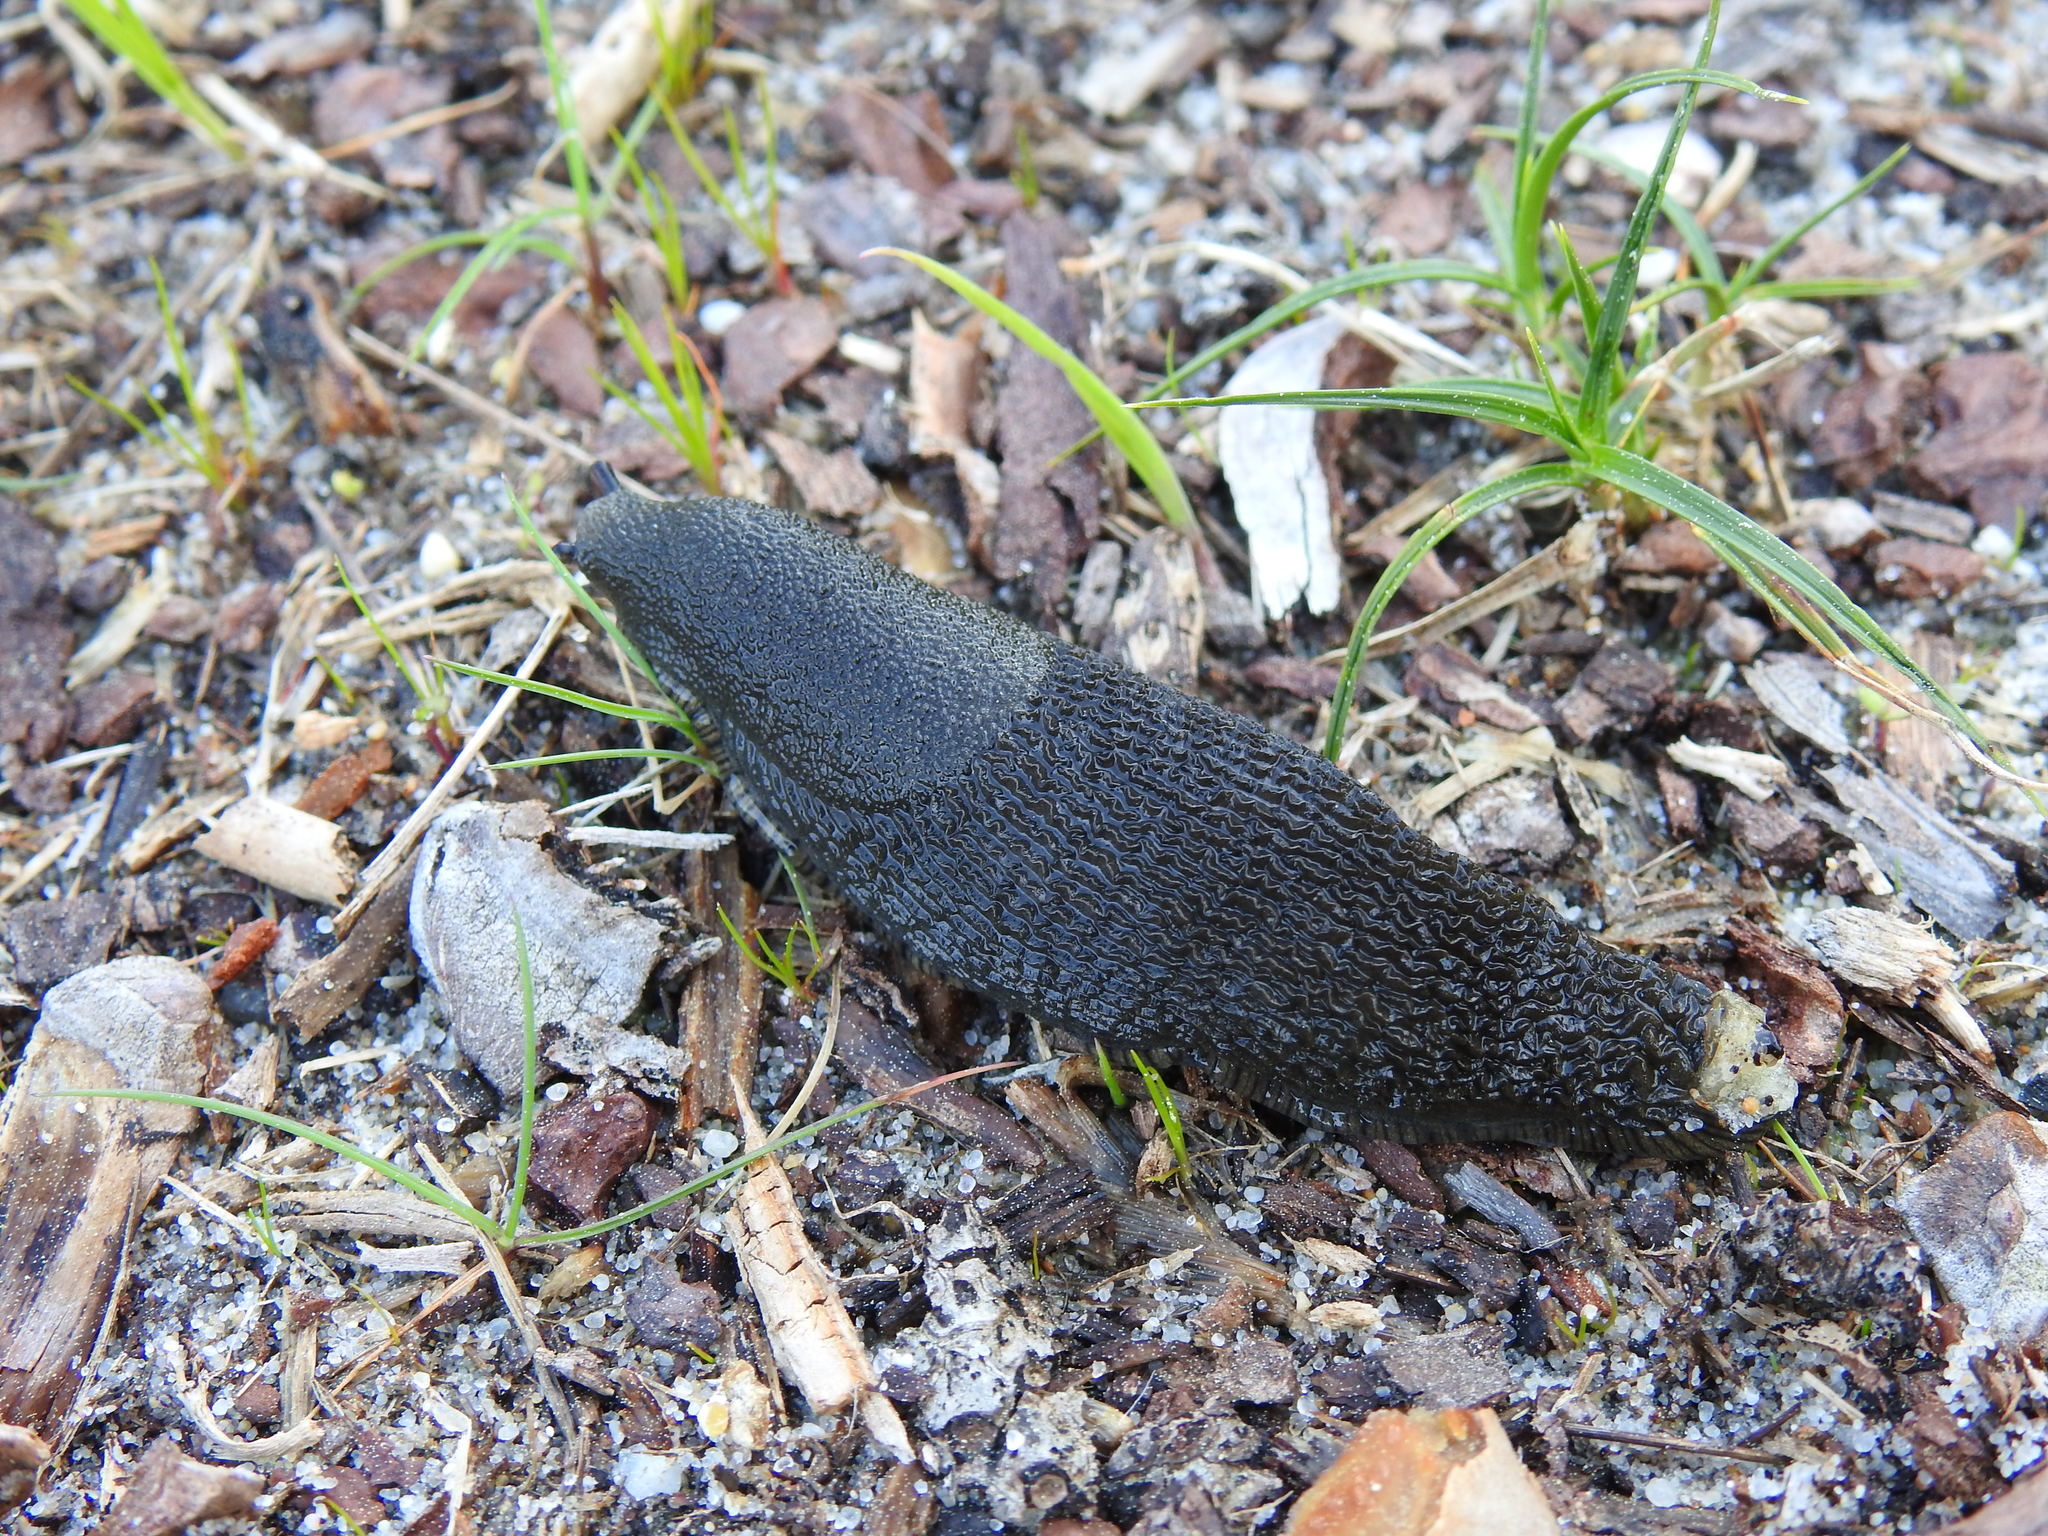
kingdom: Animalia
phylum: Mollusca
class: Gastropoda
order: Stylommatophora
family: Arionidae
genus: Arion
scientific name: Arion ater
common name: Black arion
